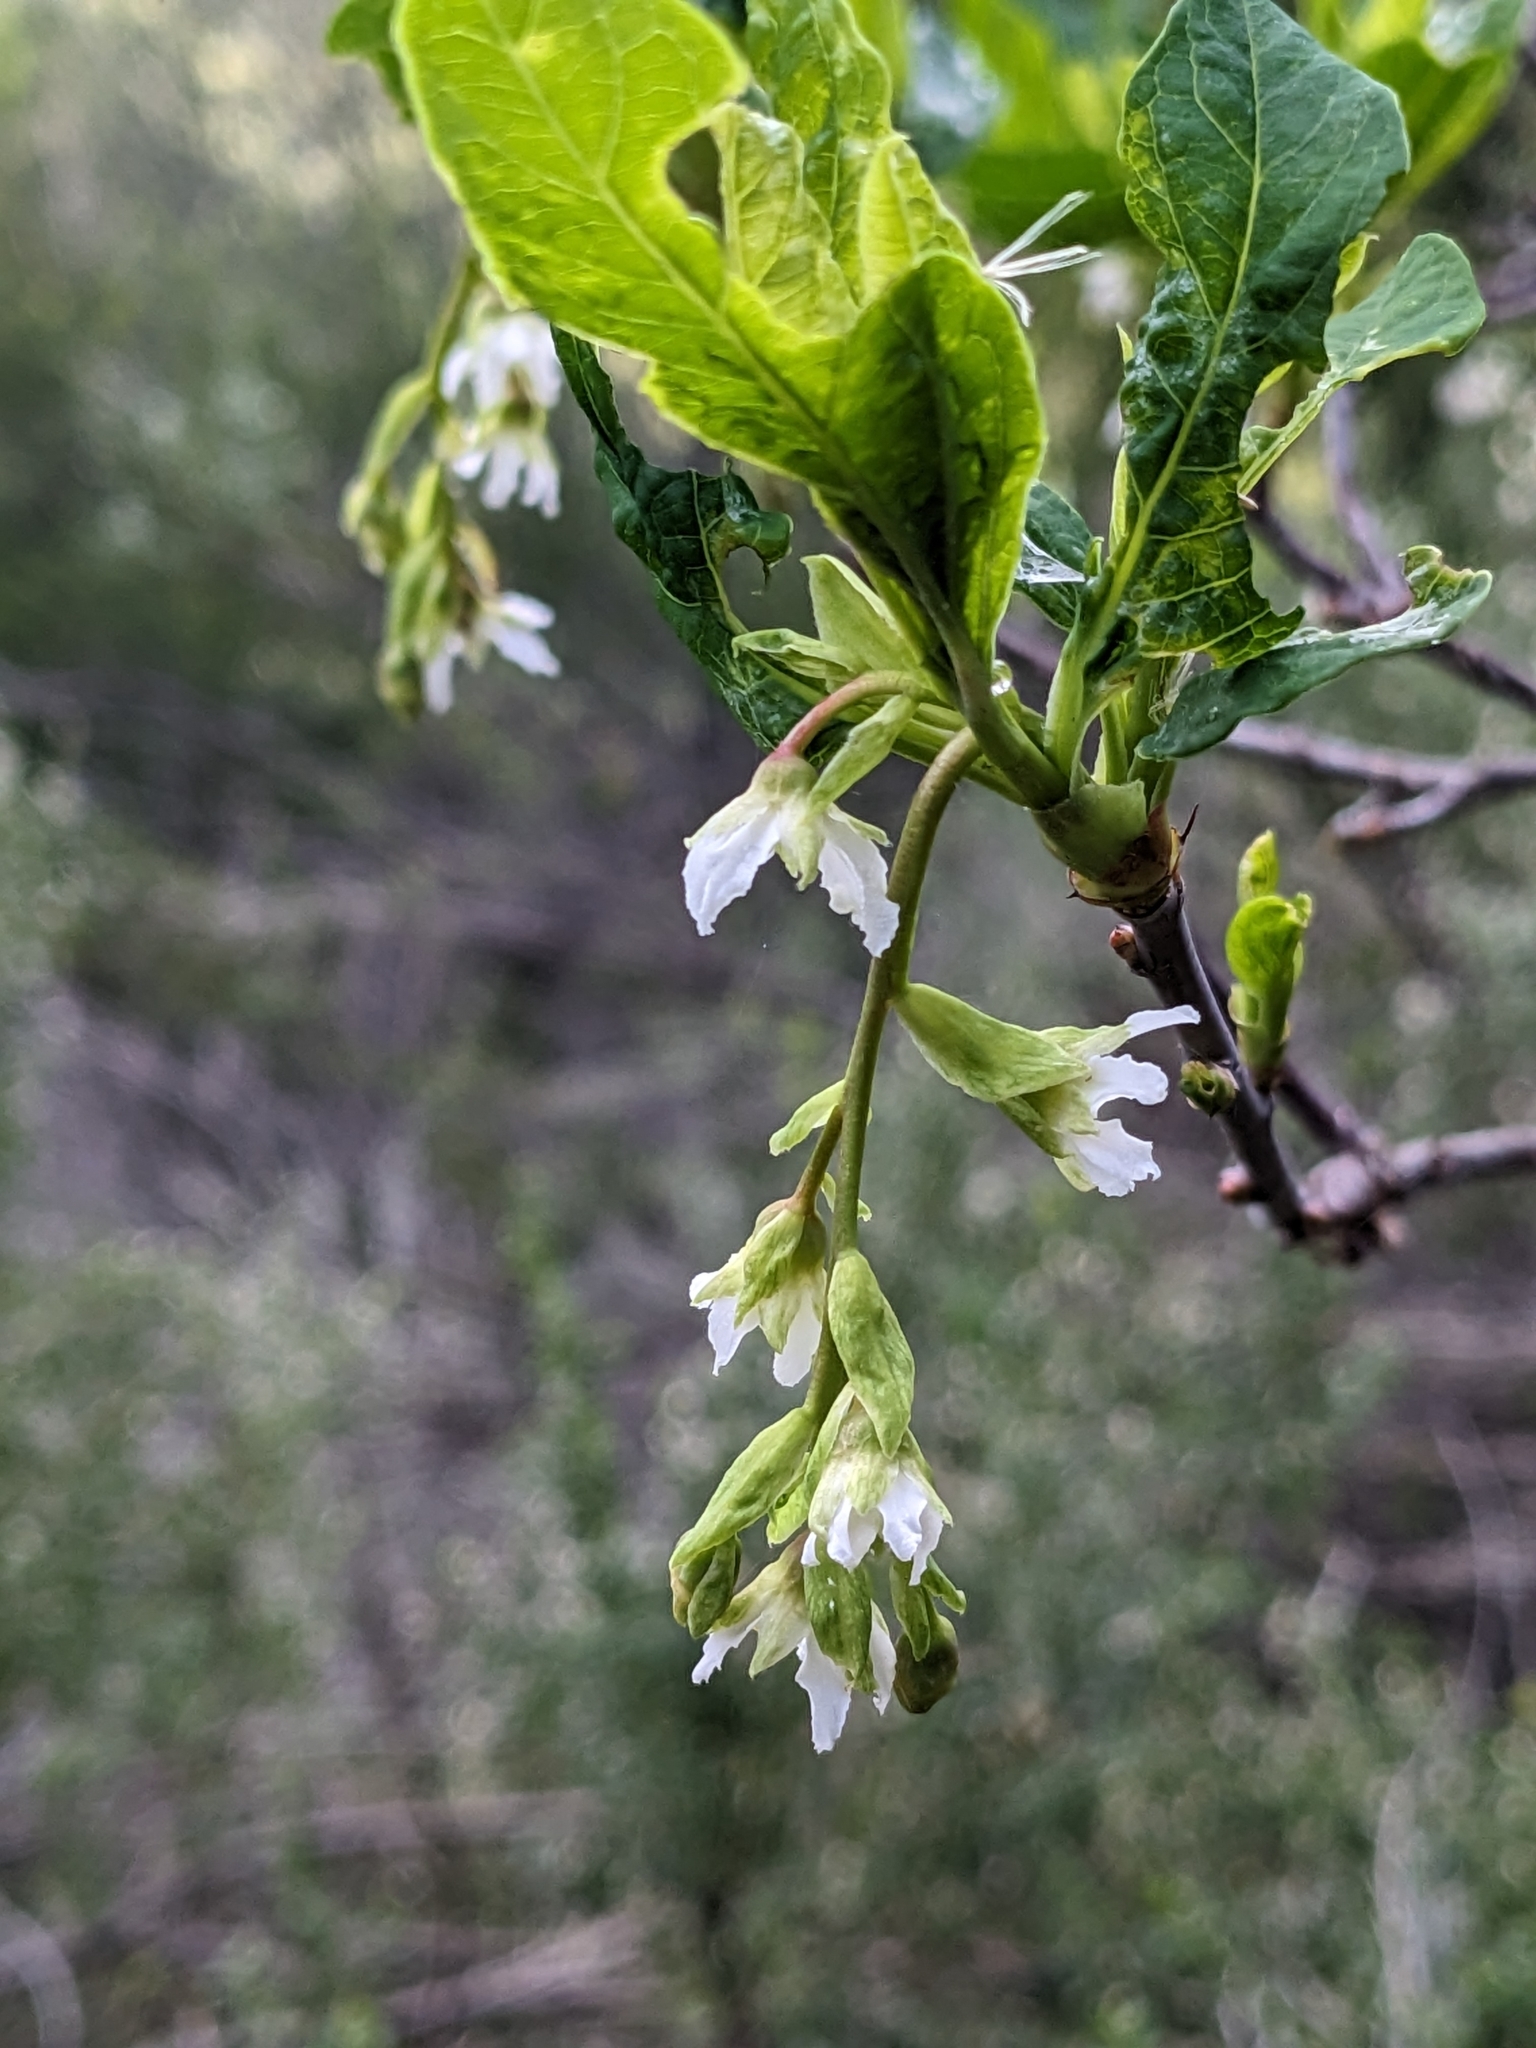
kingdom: Plantae
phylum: Tracheophyta
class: Magnoliopsida
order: Rosales
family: Rosaceae
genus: Oemleria
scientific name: Oemleria cerasiformis
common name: Osoberry
